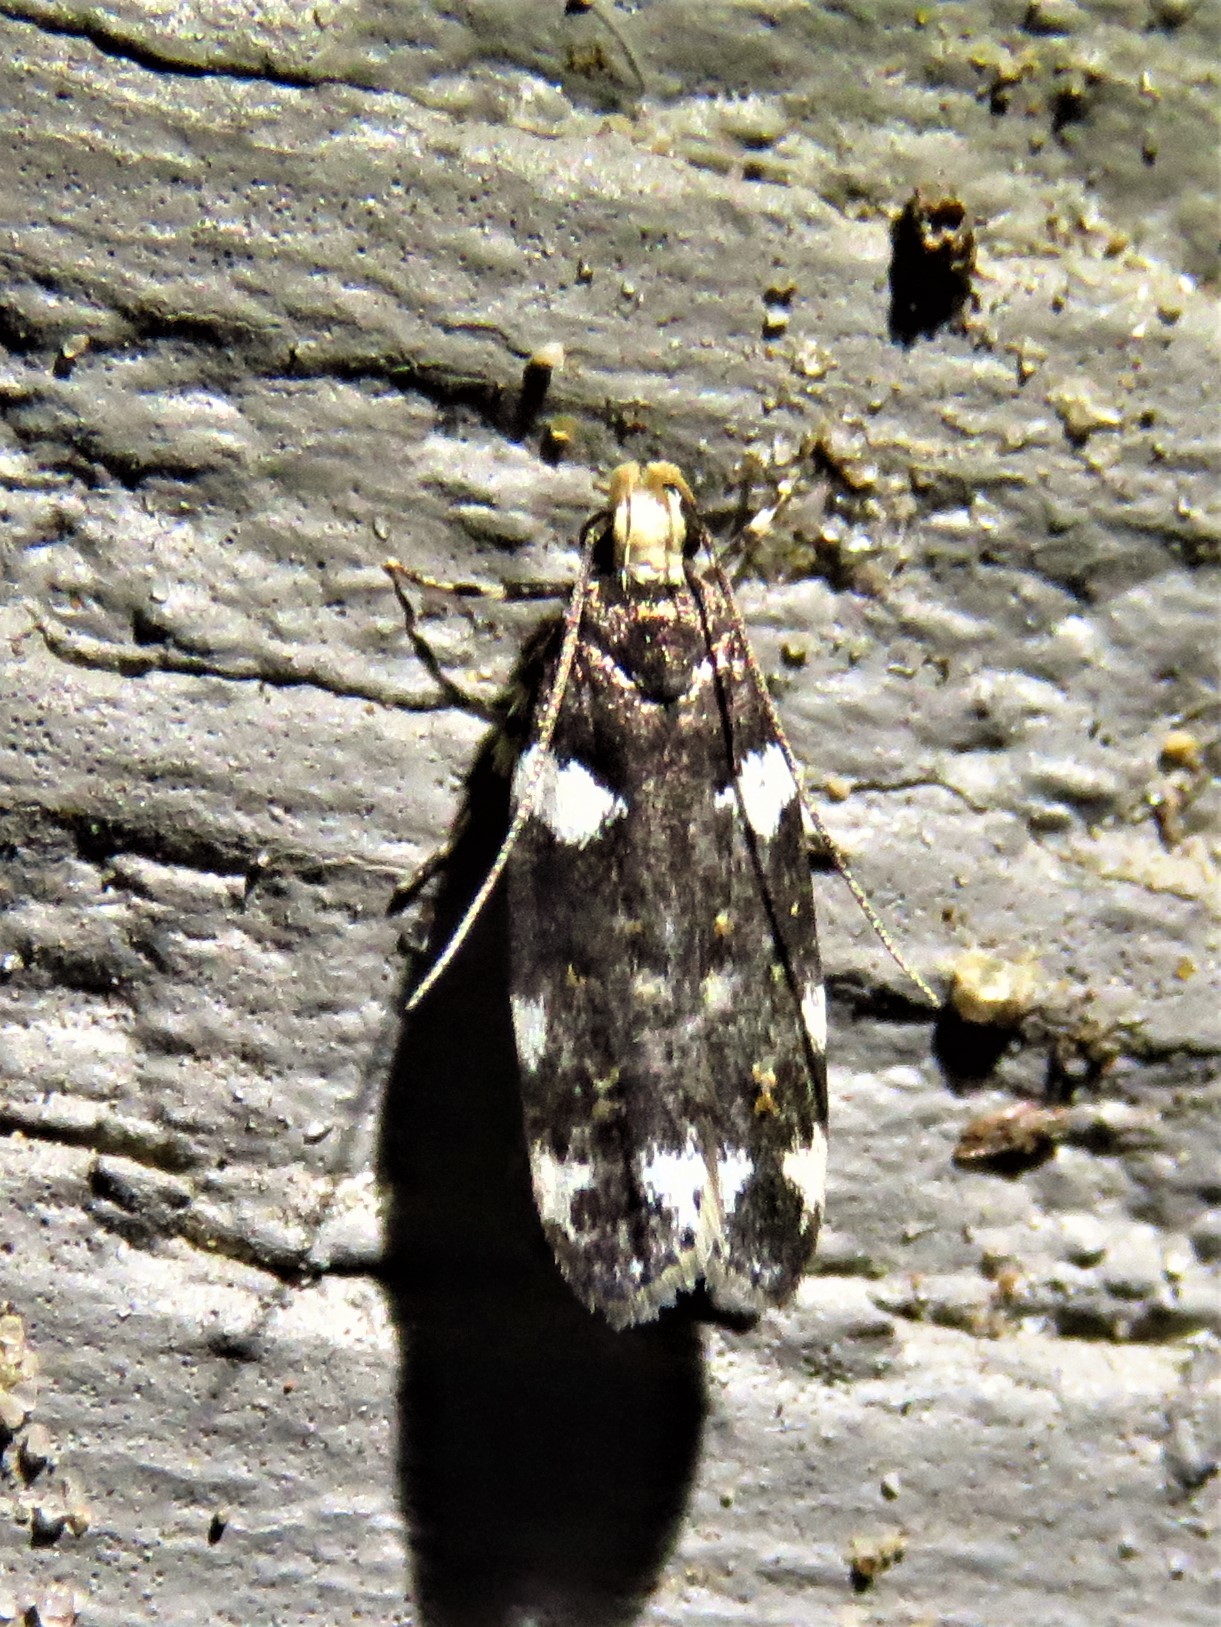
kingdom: Animalia
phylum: Arthropoda
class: Insecta
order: Lepidoptera
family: Gelechiidae
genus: Fascista
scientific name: Fascista cercerisella
